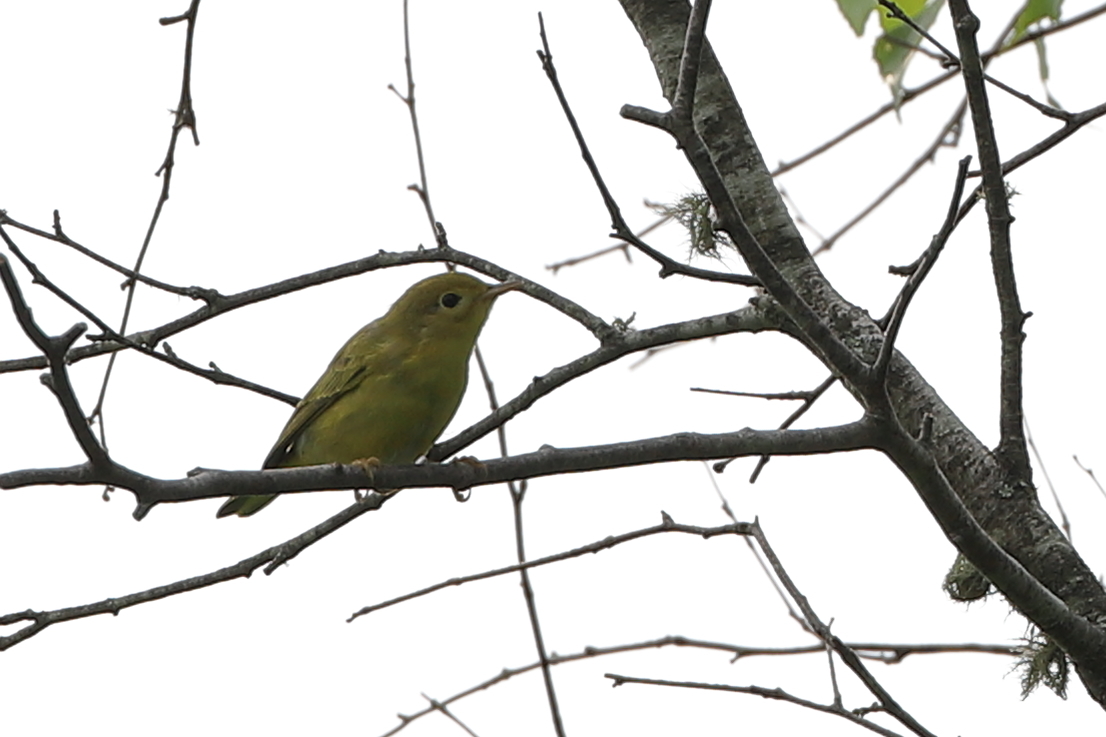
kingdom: Animalia
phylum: Chordata
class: Aves
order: Passeriformes
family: Parulidae
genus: Setophaga
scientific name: Setophaga petechia
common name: Yellow warbler
